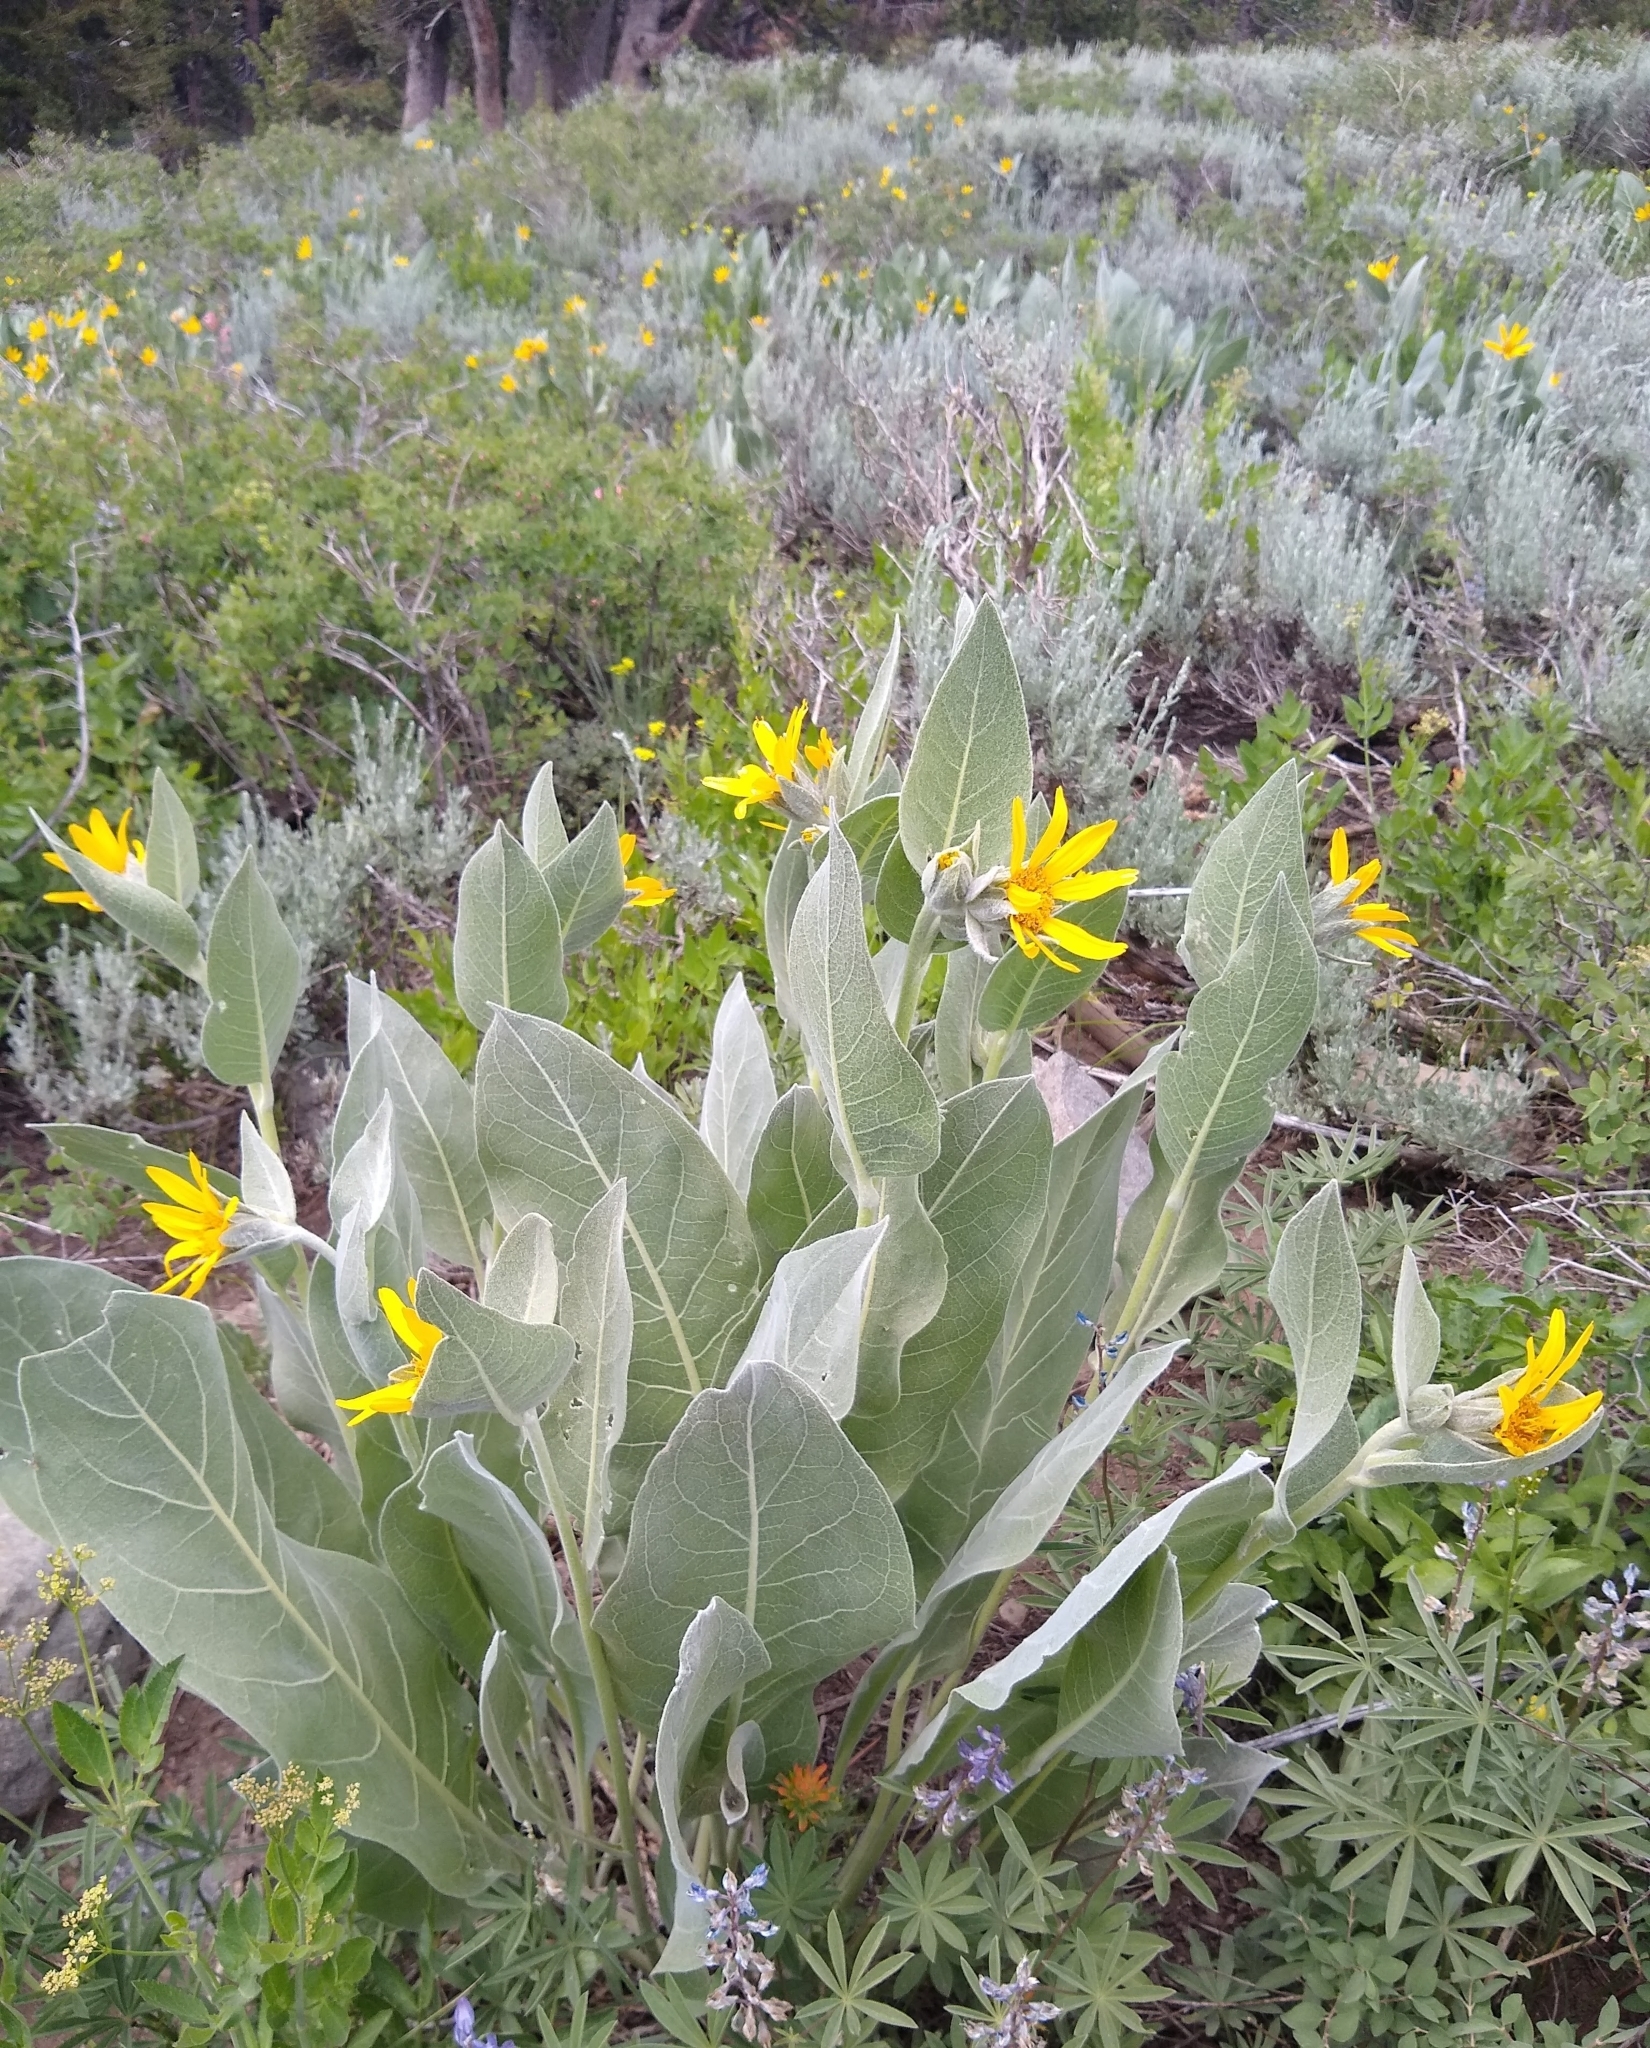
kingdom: Plantae
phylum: Tracheophyta
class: Magnoliopsida
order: Asterales
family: Asteraceae
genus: Wyethia
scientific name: Wyethia mollis
